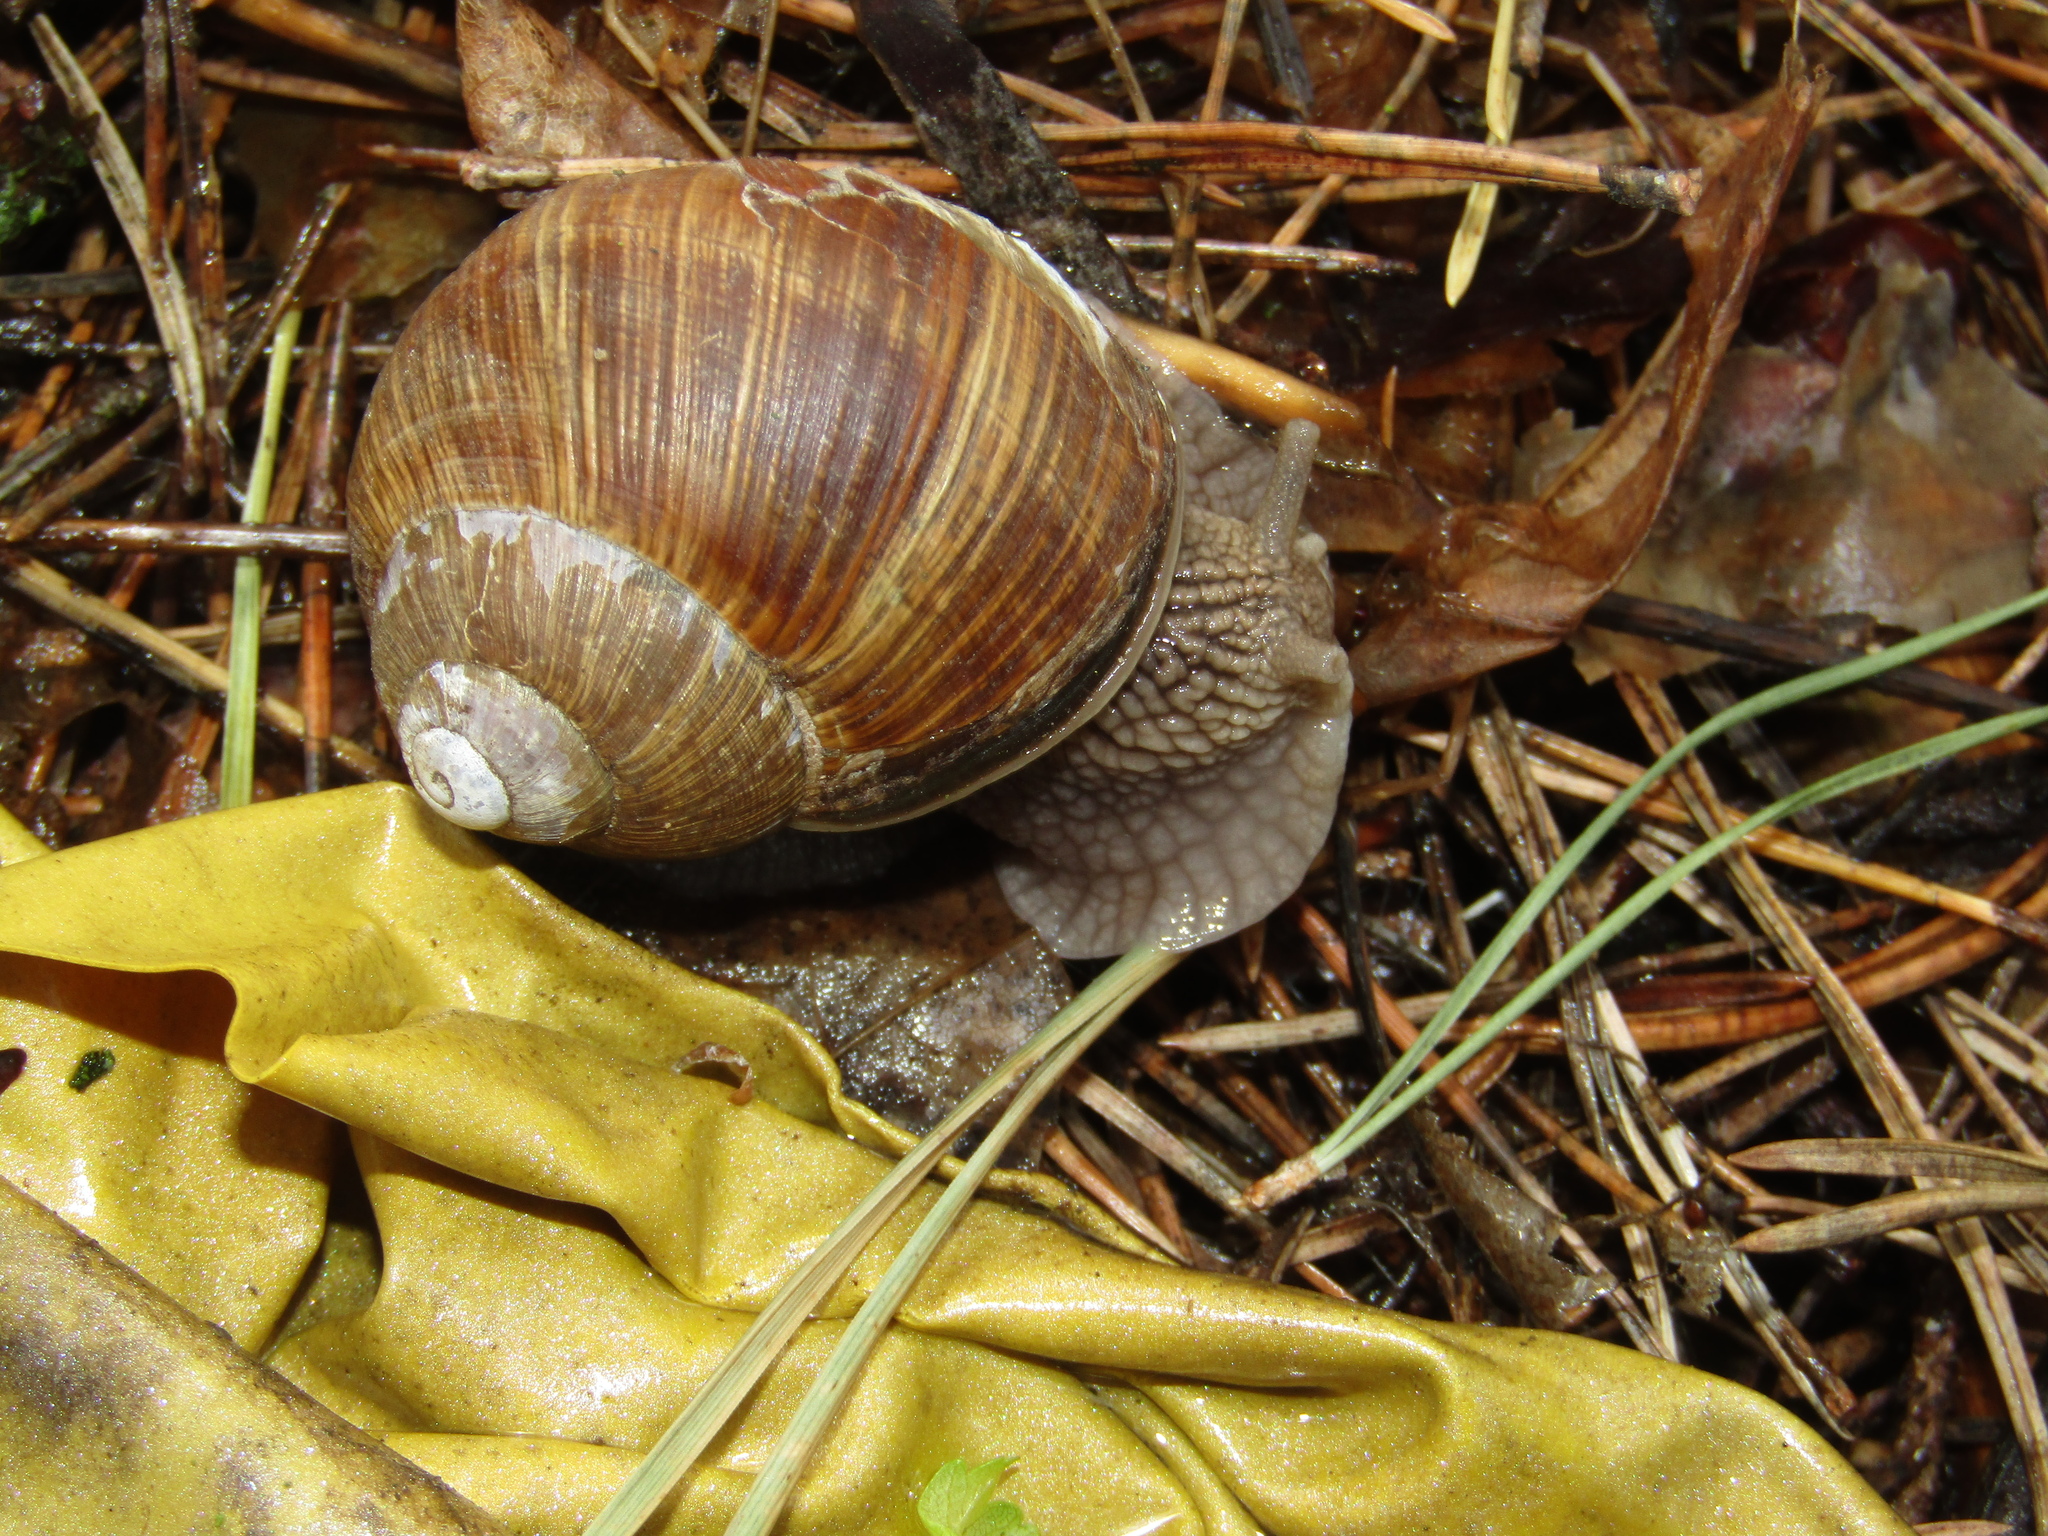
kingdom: Animalia
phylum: Mollusca
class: Gastropoda
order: Stylommatophora
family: Helicidae
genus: Helix
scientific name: Helix pomatia
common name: Roman snail
